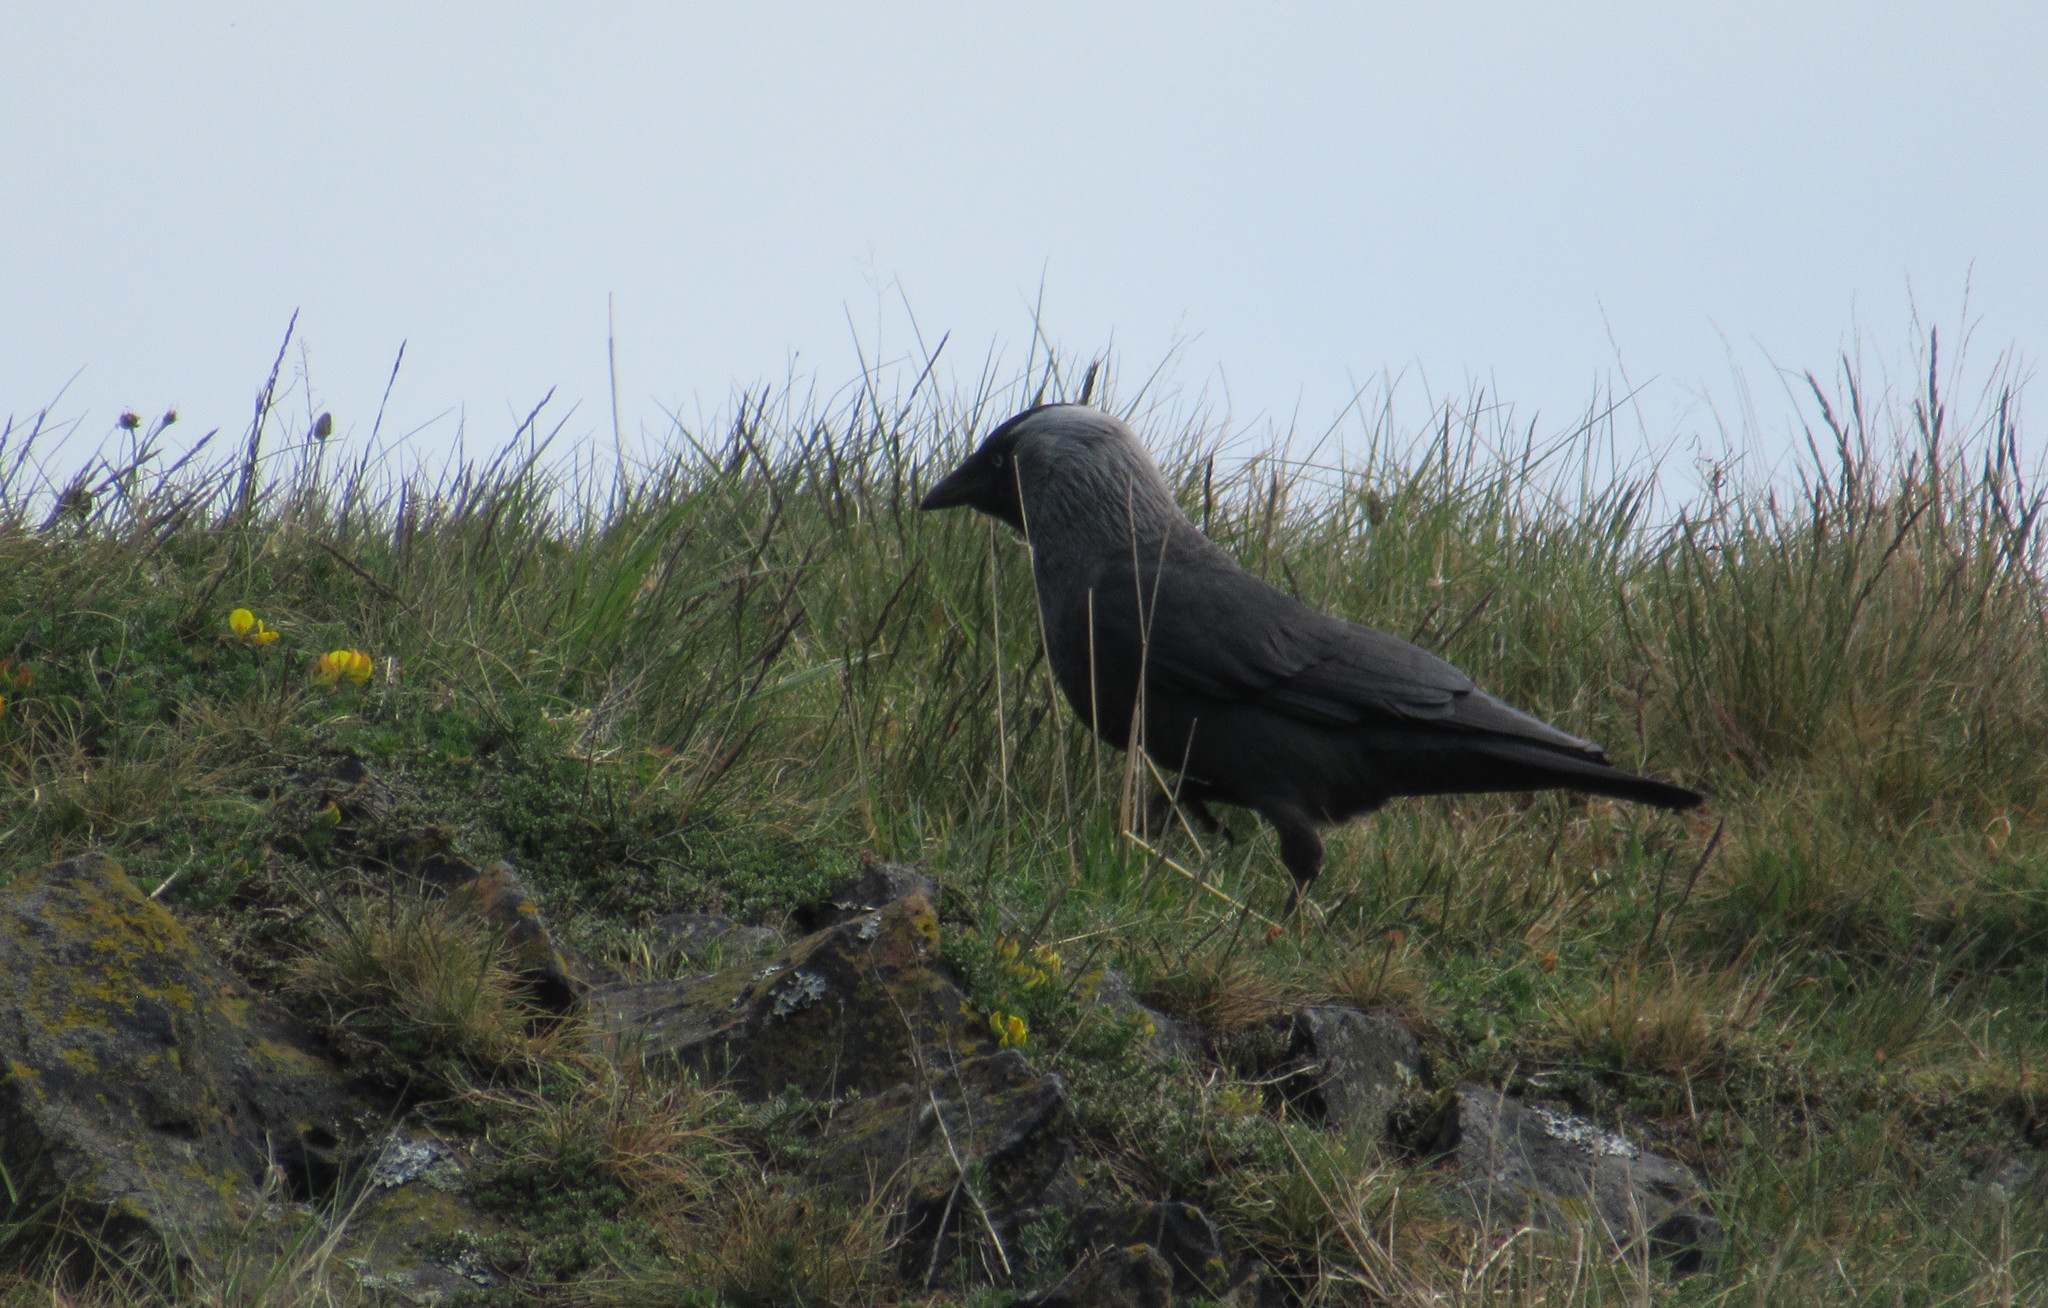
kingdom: Animalia
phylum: Chordata
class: Aves
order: Passeriformes
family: Corvidae
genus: Coloeus
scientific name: Coloeus monedula
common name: Western jackdaw
